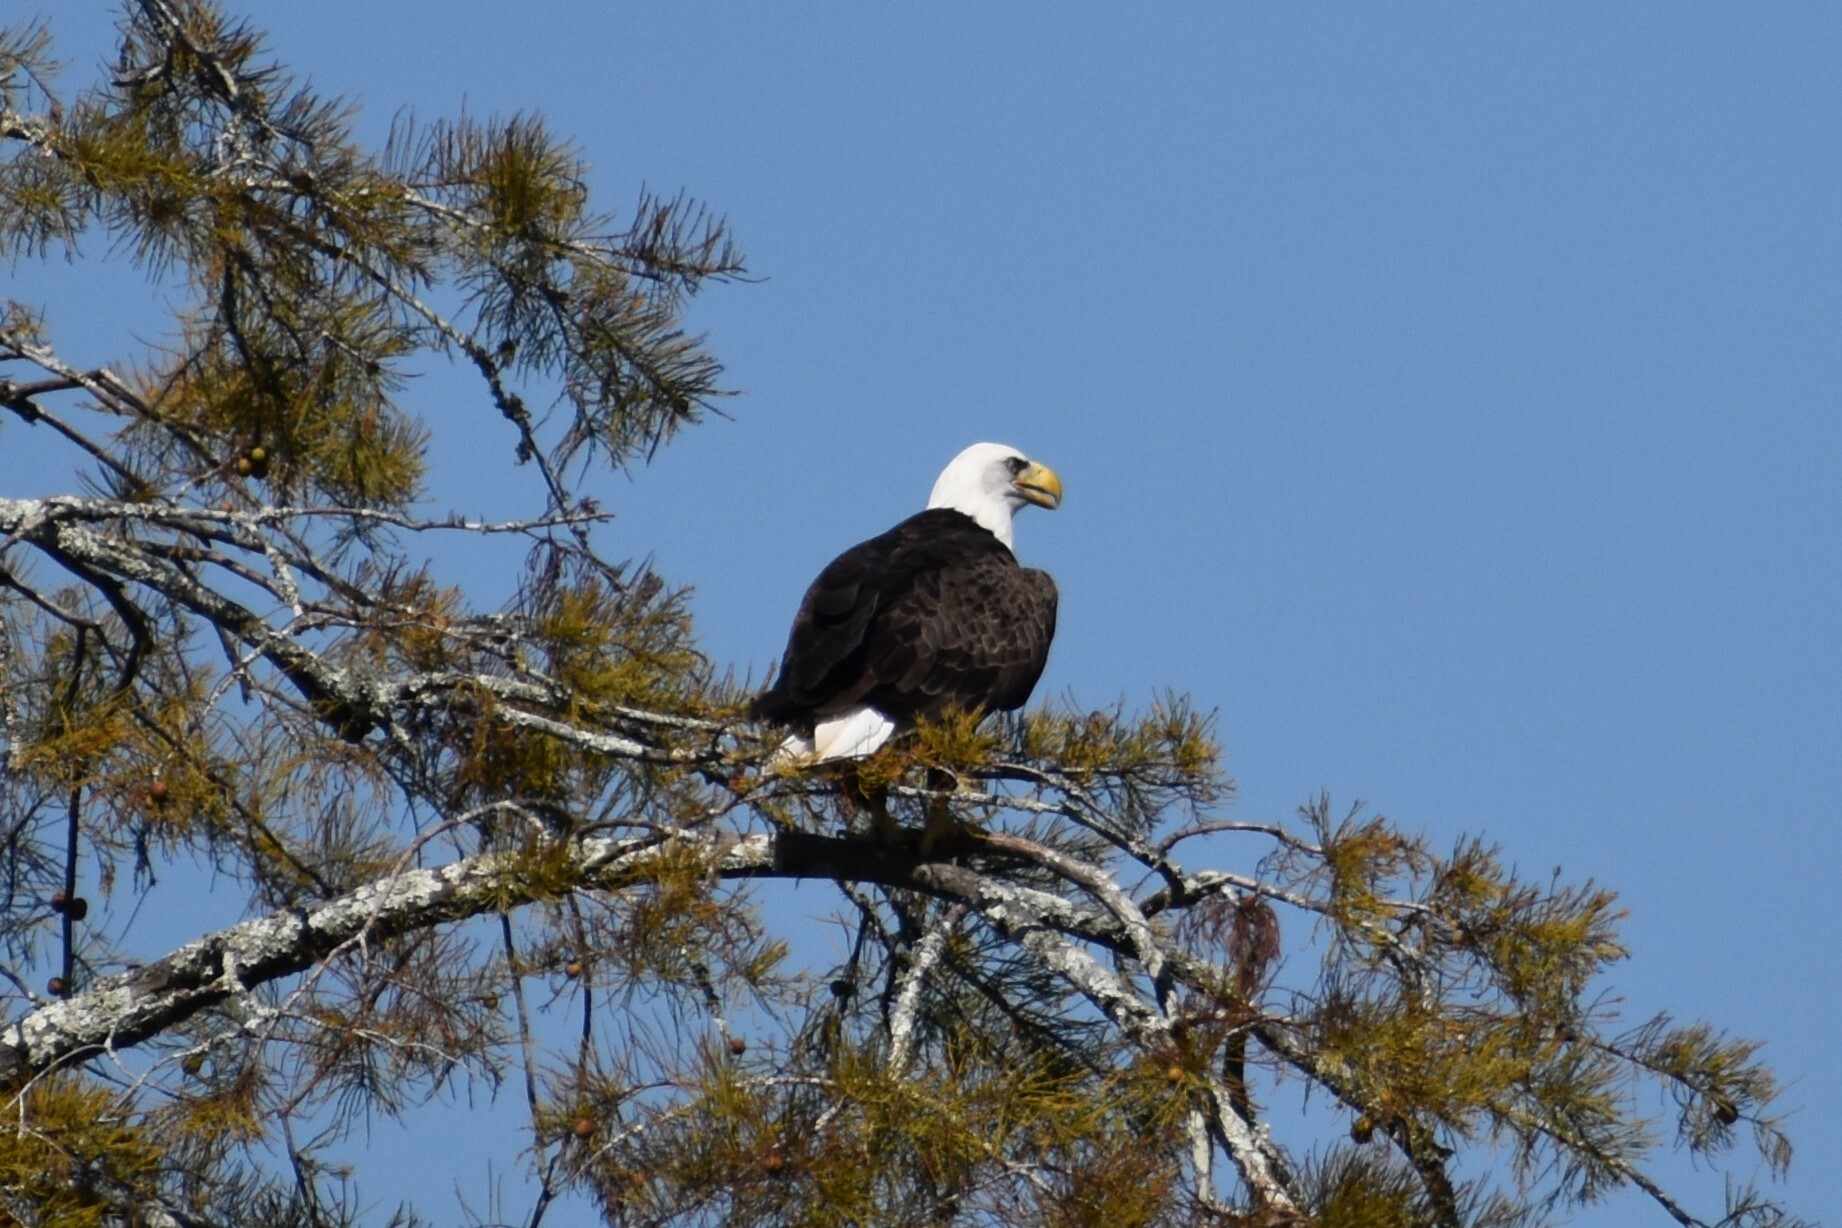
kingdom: Animalia
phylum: Chordata
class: Aves
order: Accipitriformes
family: Accipitridae
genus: Haliaeetus
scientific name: Haliaeetus leucocephalus
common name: Bald eagle
